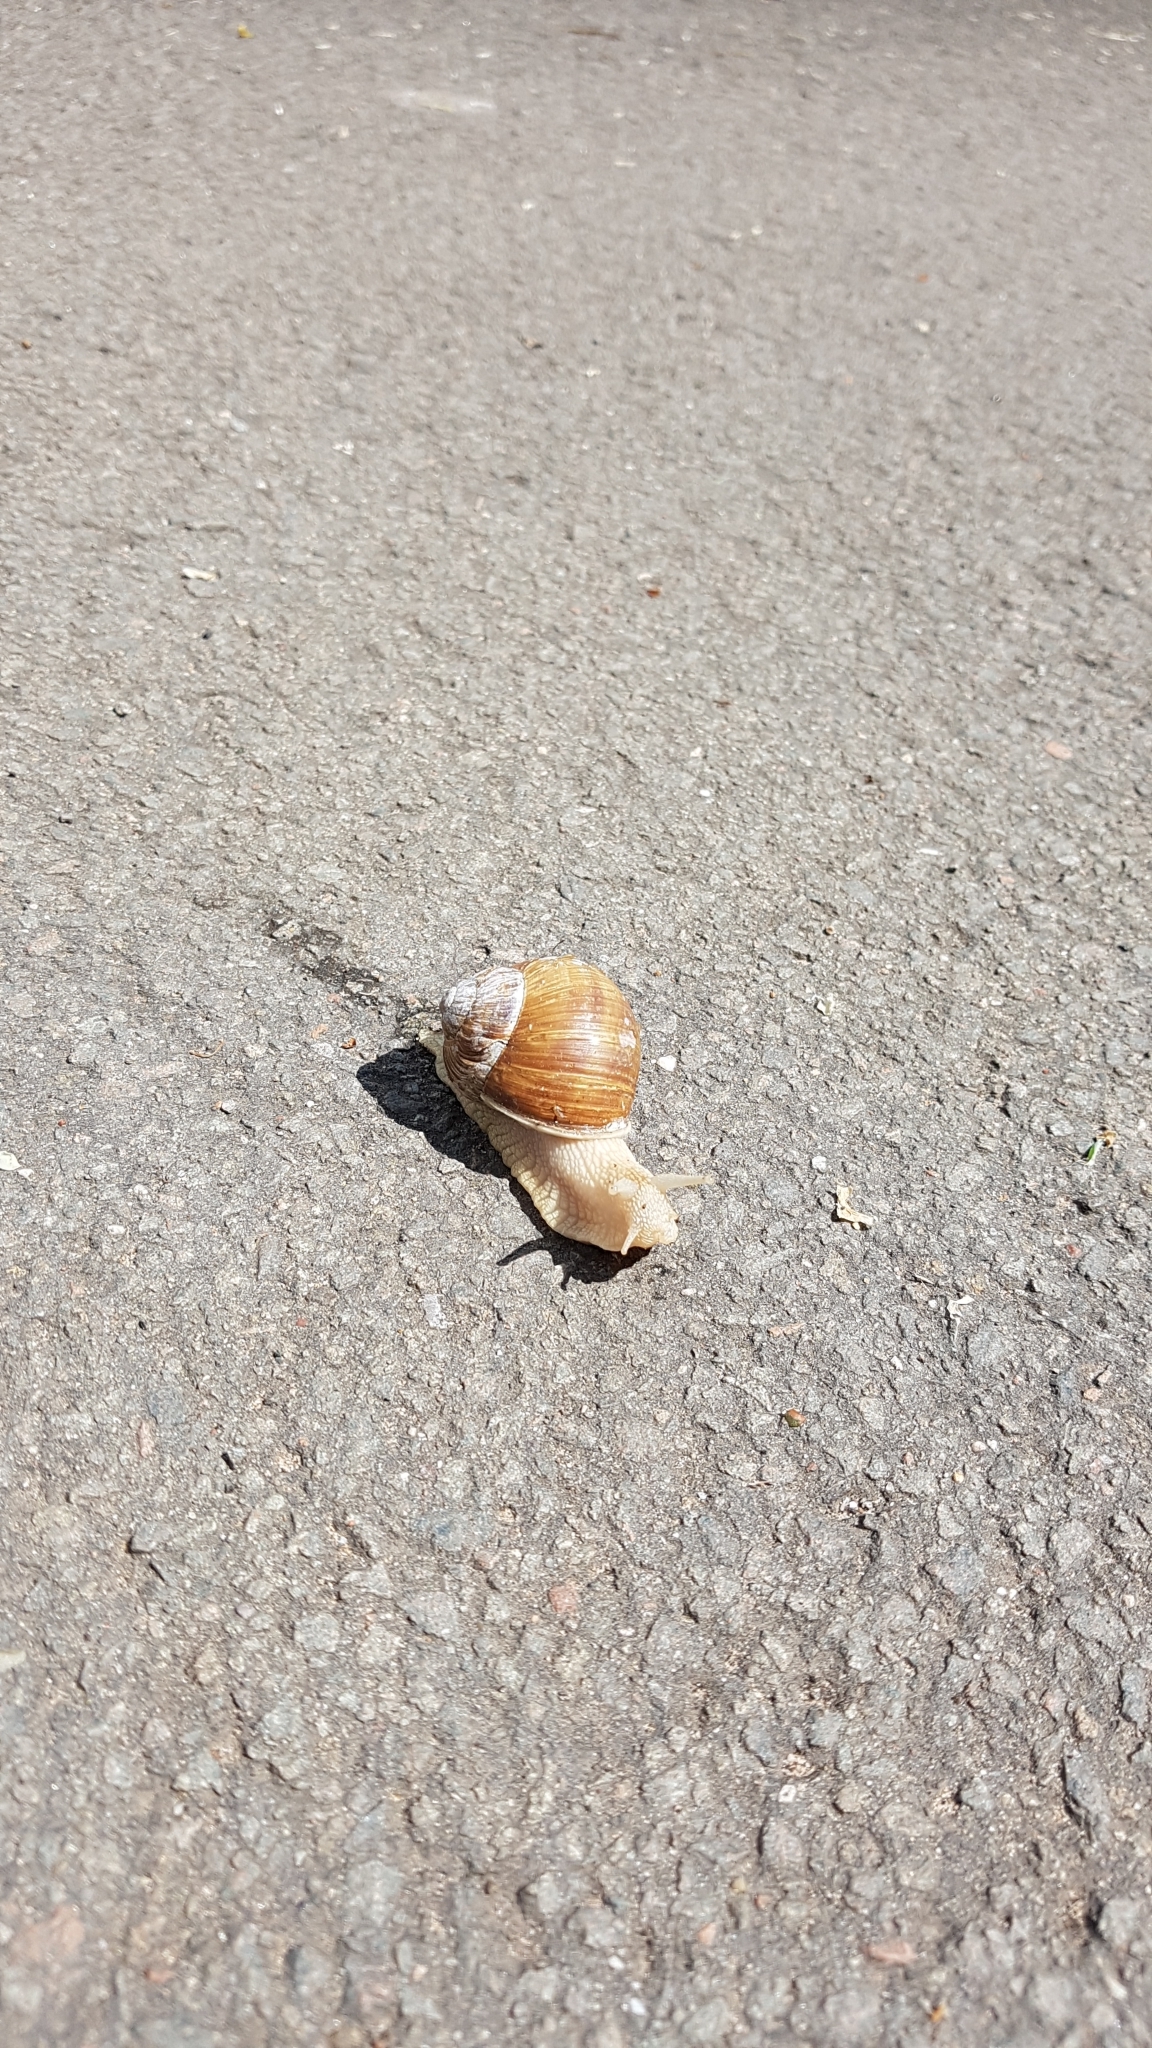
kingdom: Animalia
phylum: Mollusca
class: Gastropoda
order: Stylommatophora
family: Helicidae
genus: Helix
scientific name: Helix pomatia
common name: Roman snail
